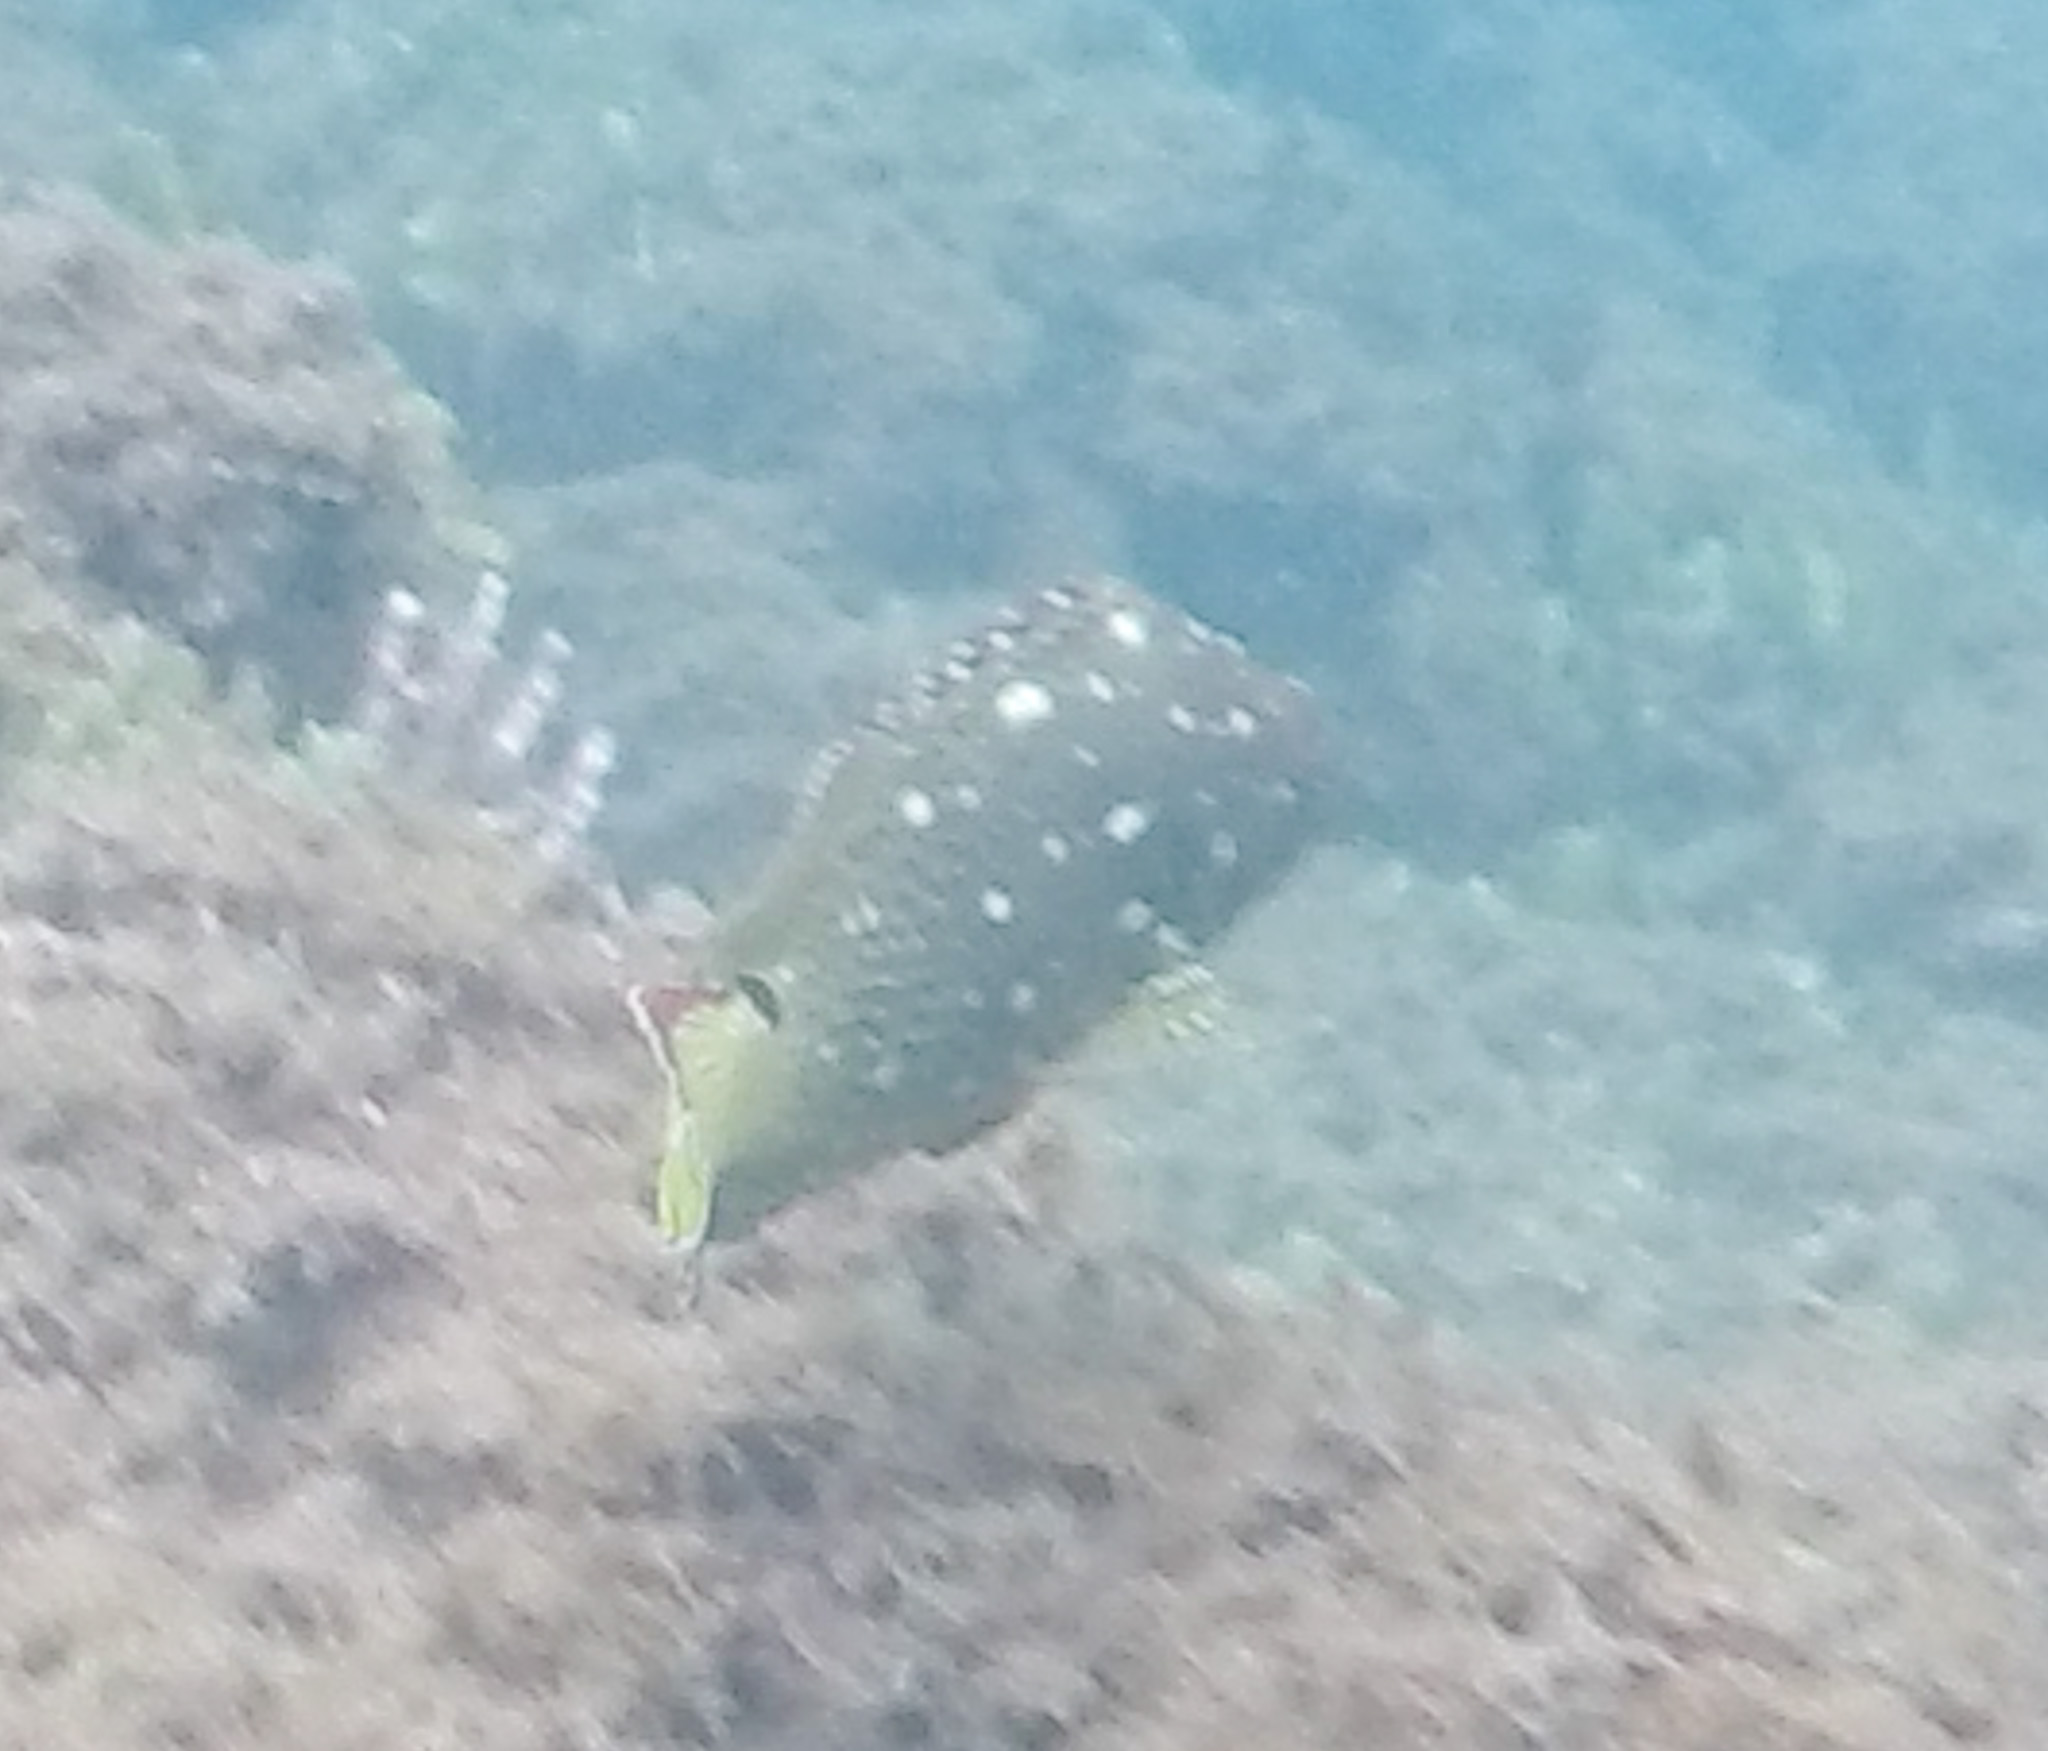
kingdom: Animalia
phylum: Chordata
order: Perciformes
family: Serranidae
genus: Epinephelus
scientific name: Epinephelus labriformis
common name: Flag cabrilla
